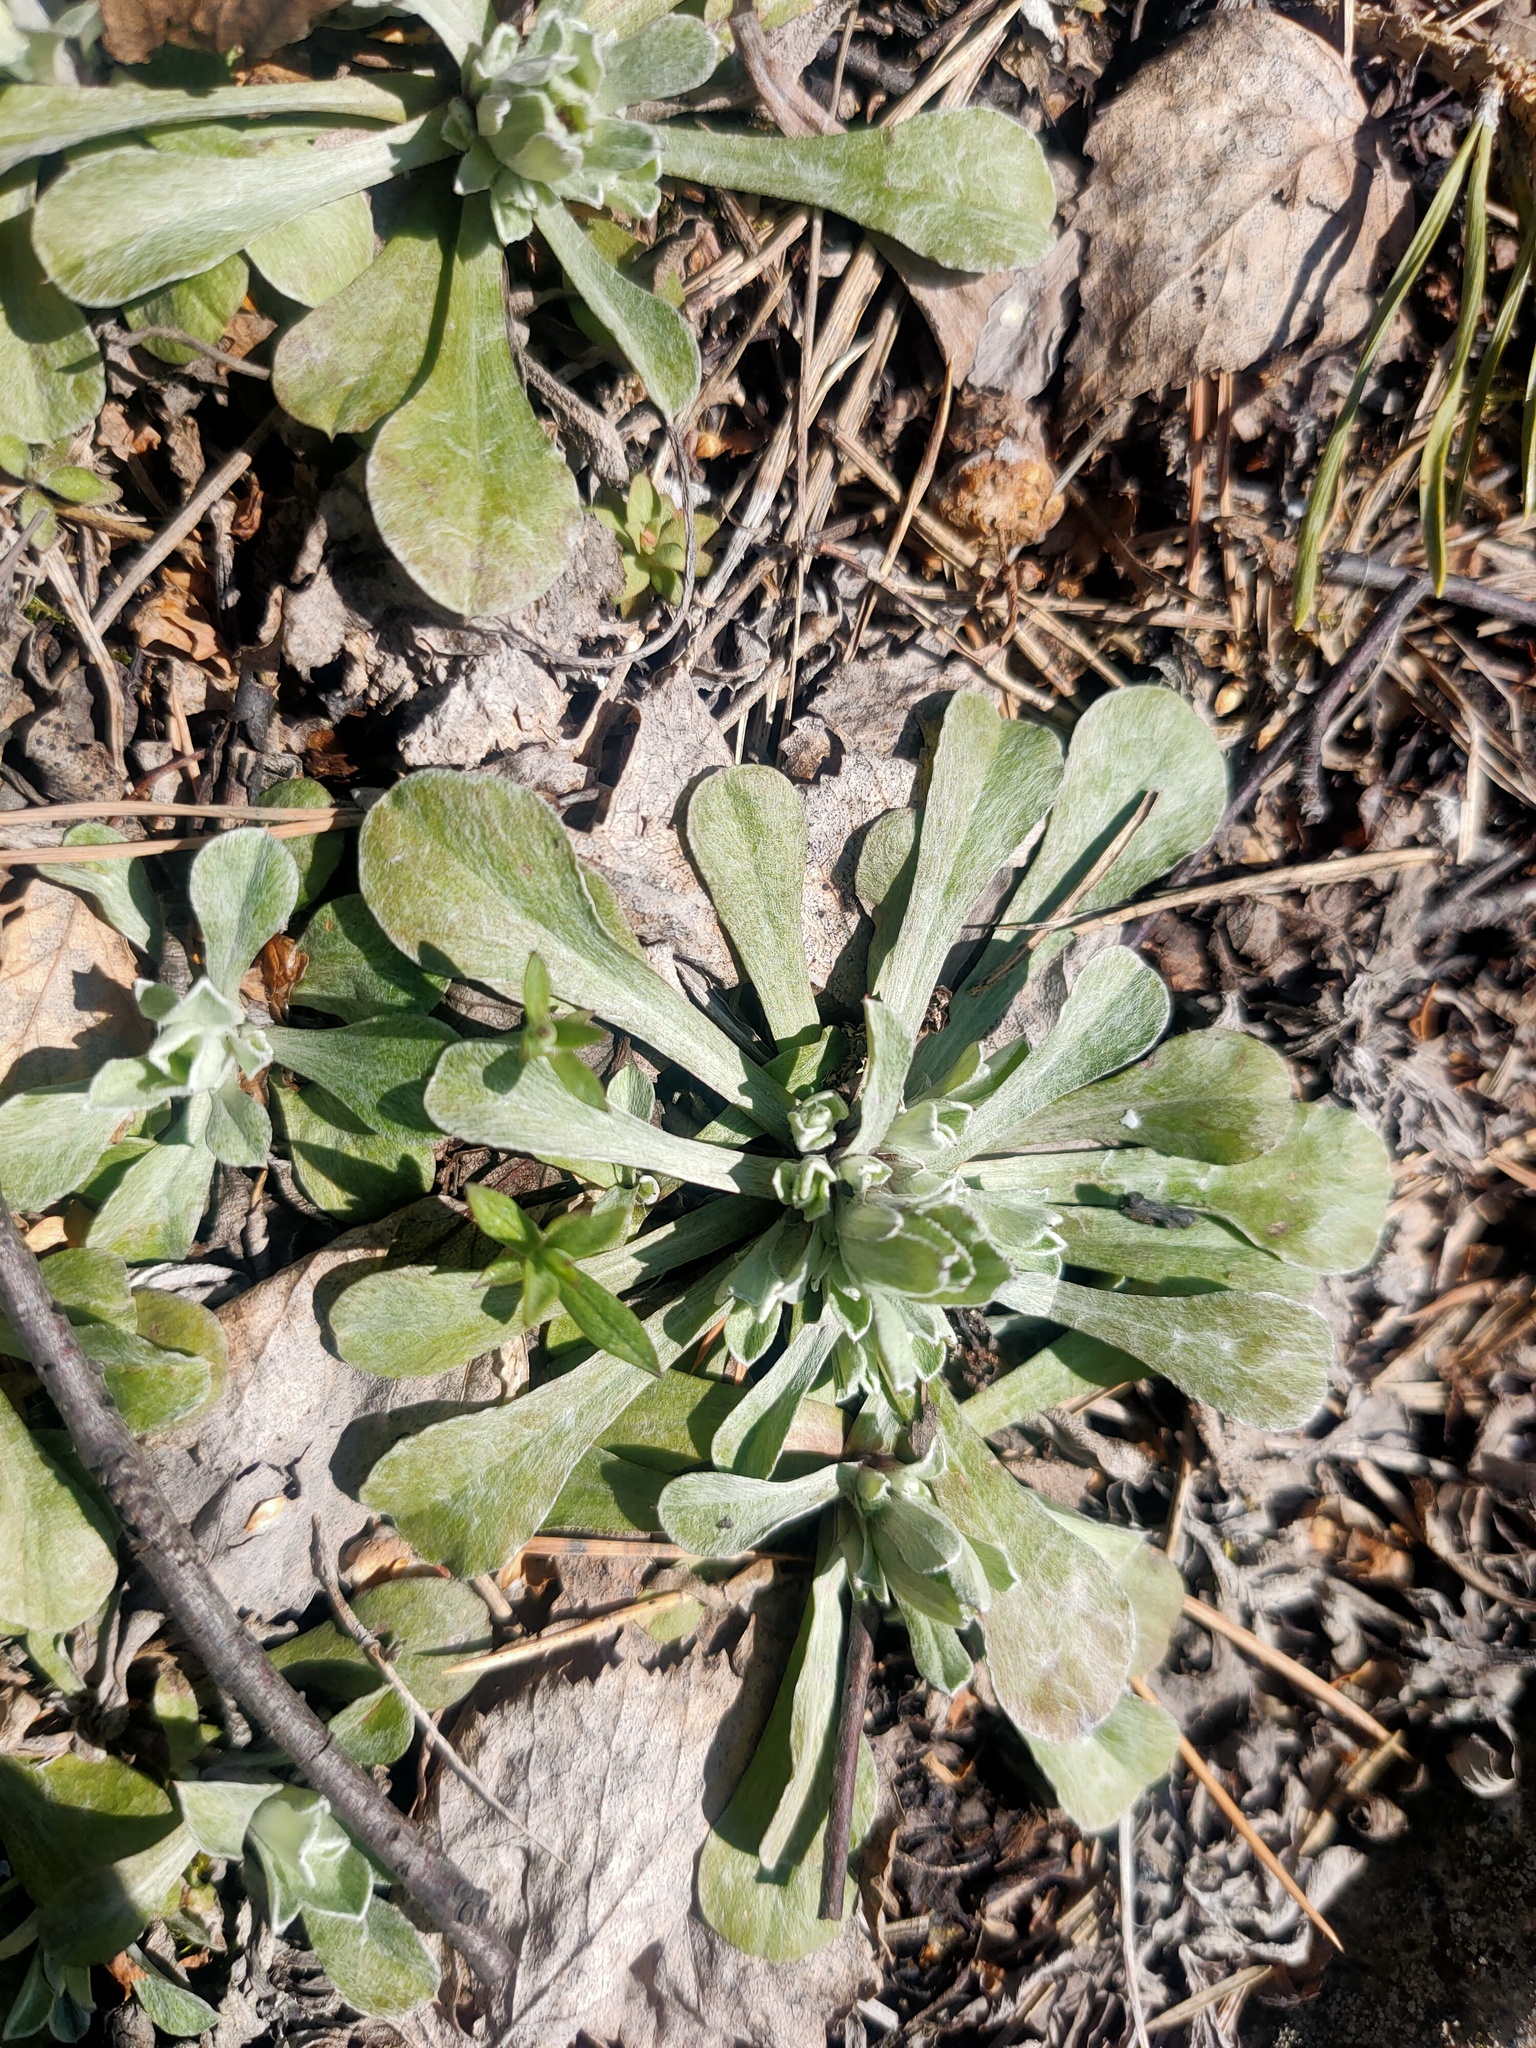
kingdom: Plantae
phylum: Tracheophyta
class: Magnoliopsida
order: Asterales
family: Asteraceae
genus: Antennaria
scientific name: Antennaria dioica
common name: Mountain everlasting
